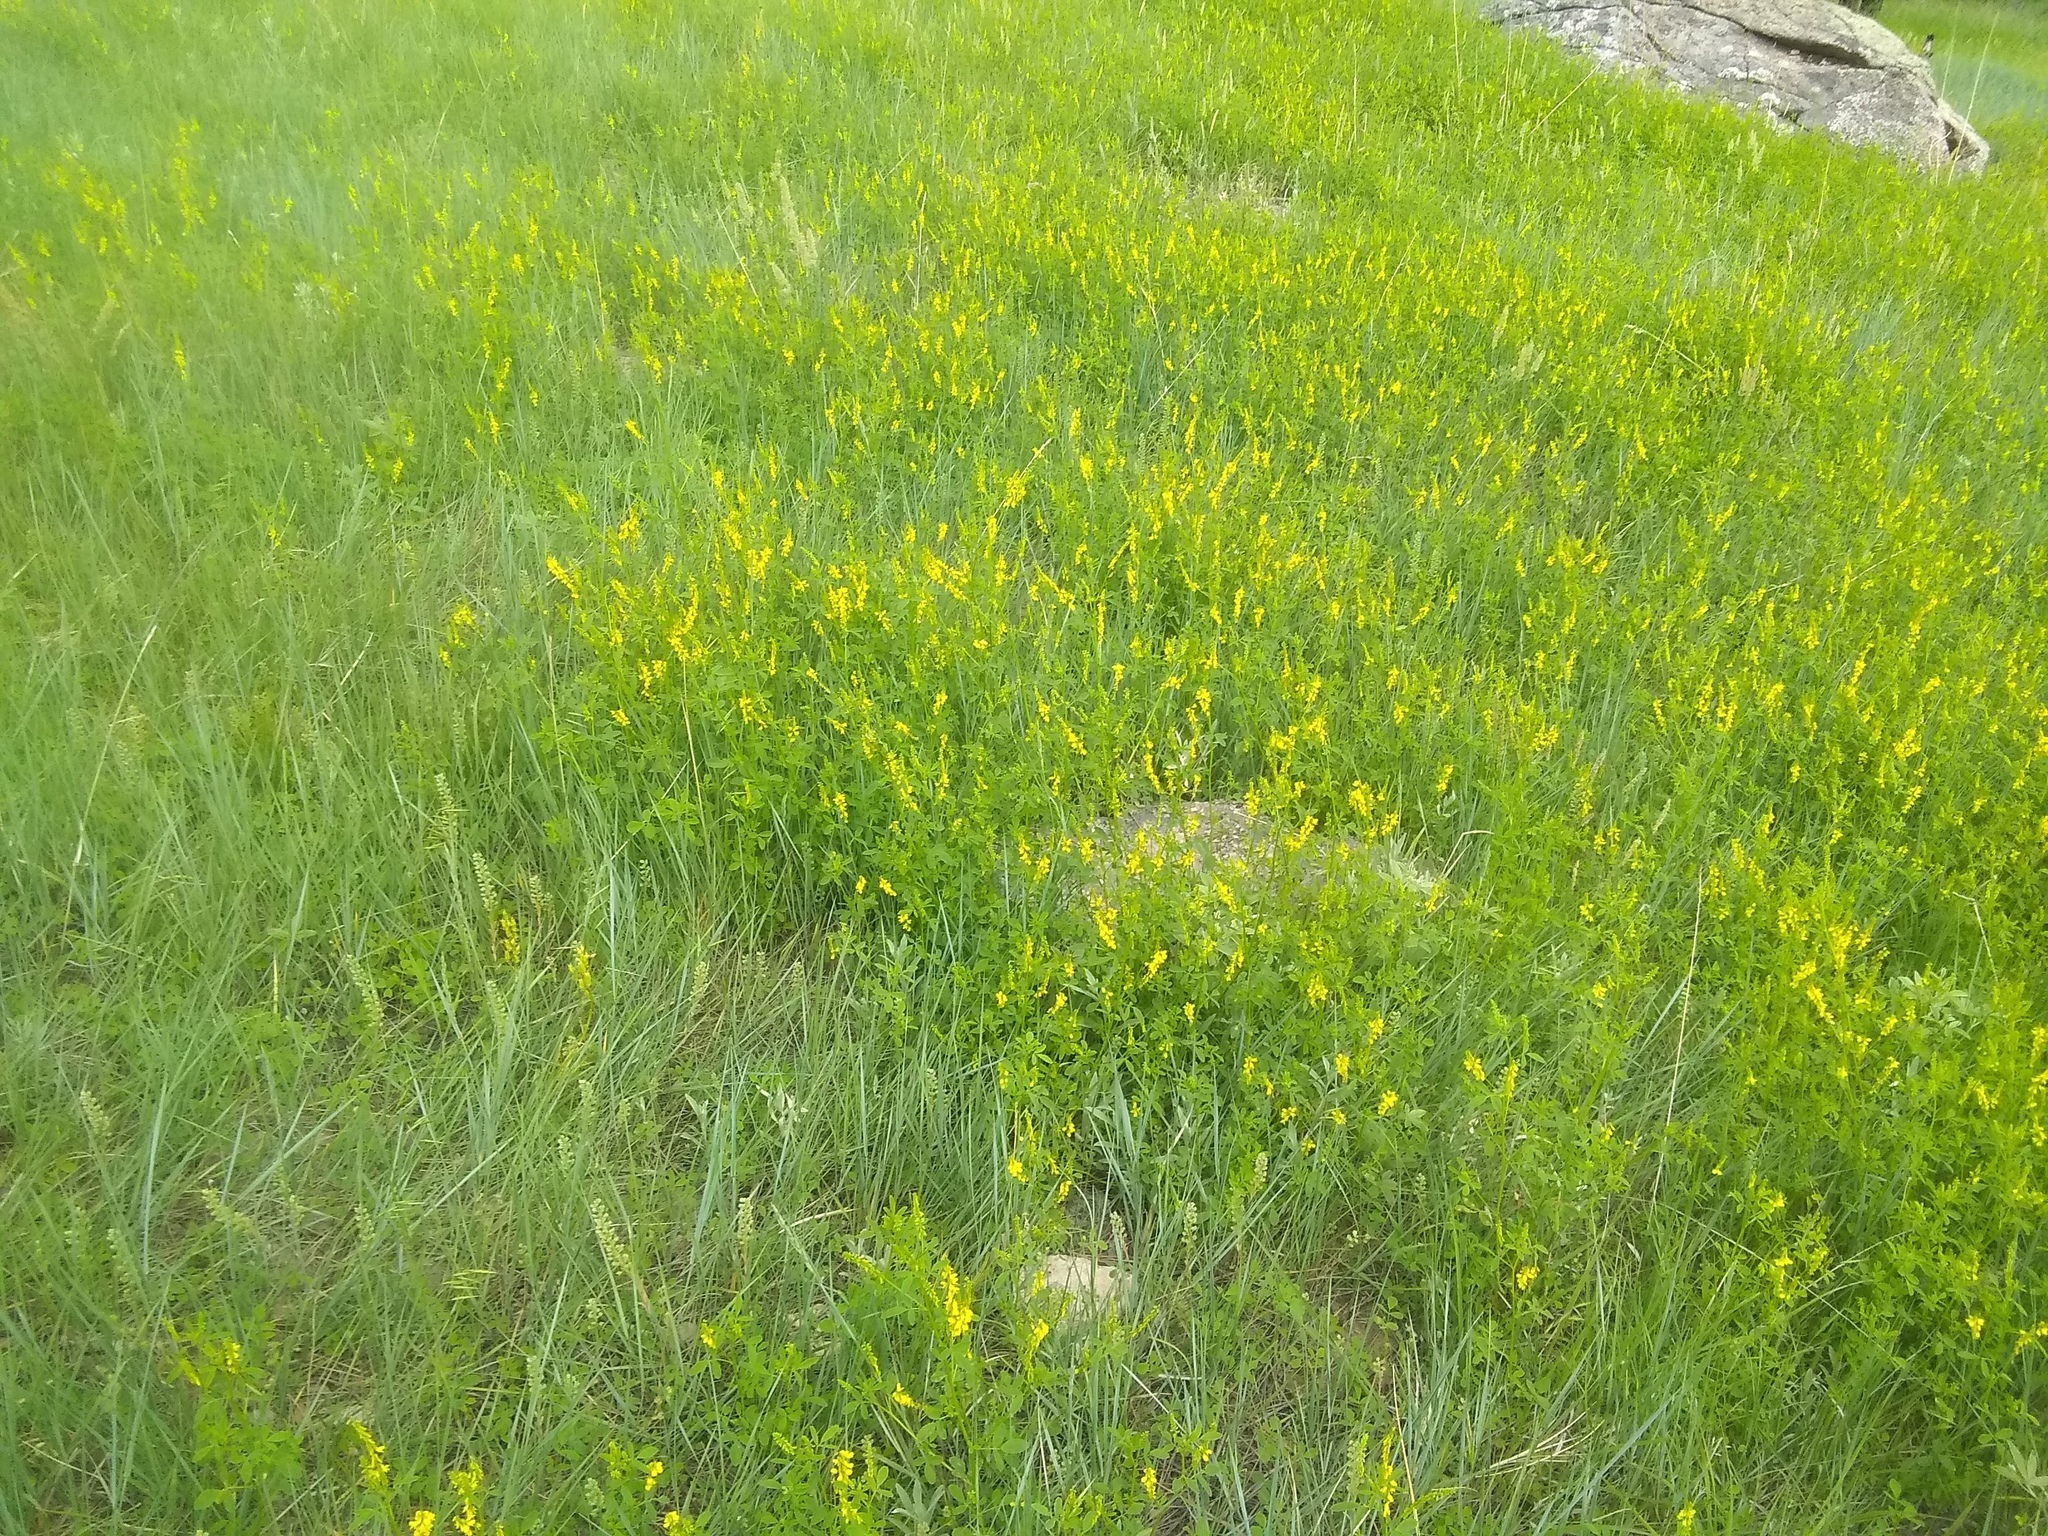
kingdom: Plantae
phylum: Tracheophyta
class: Magnoliopsida
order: Fabales
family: Fabaceae
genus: Melilotus
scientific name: Melilotus officinalis
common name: Sweetclover
